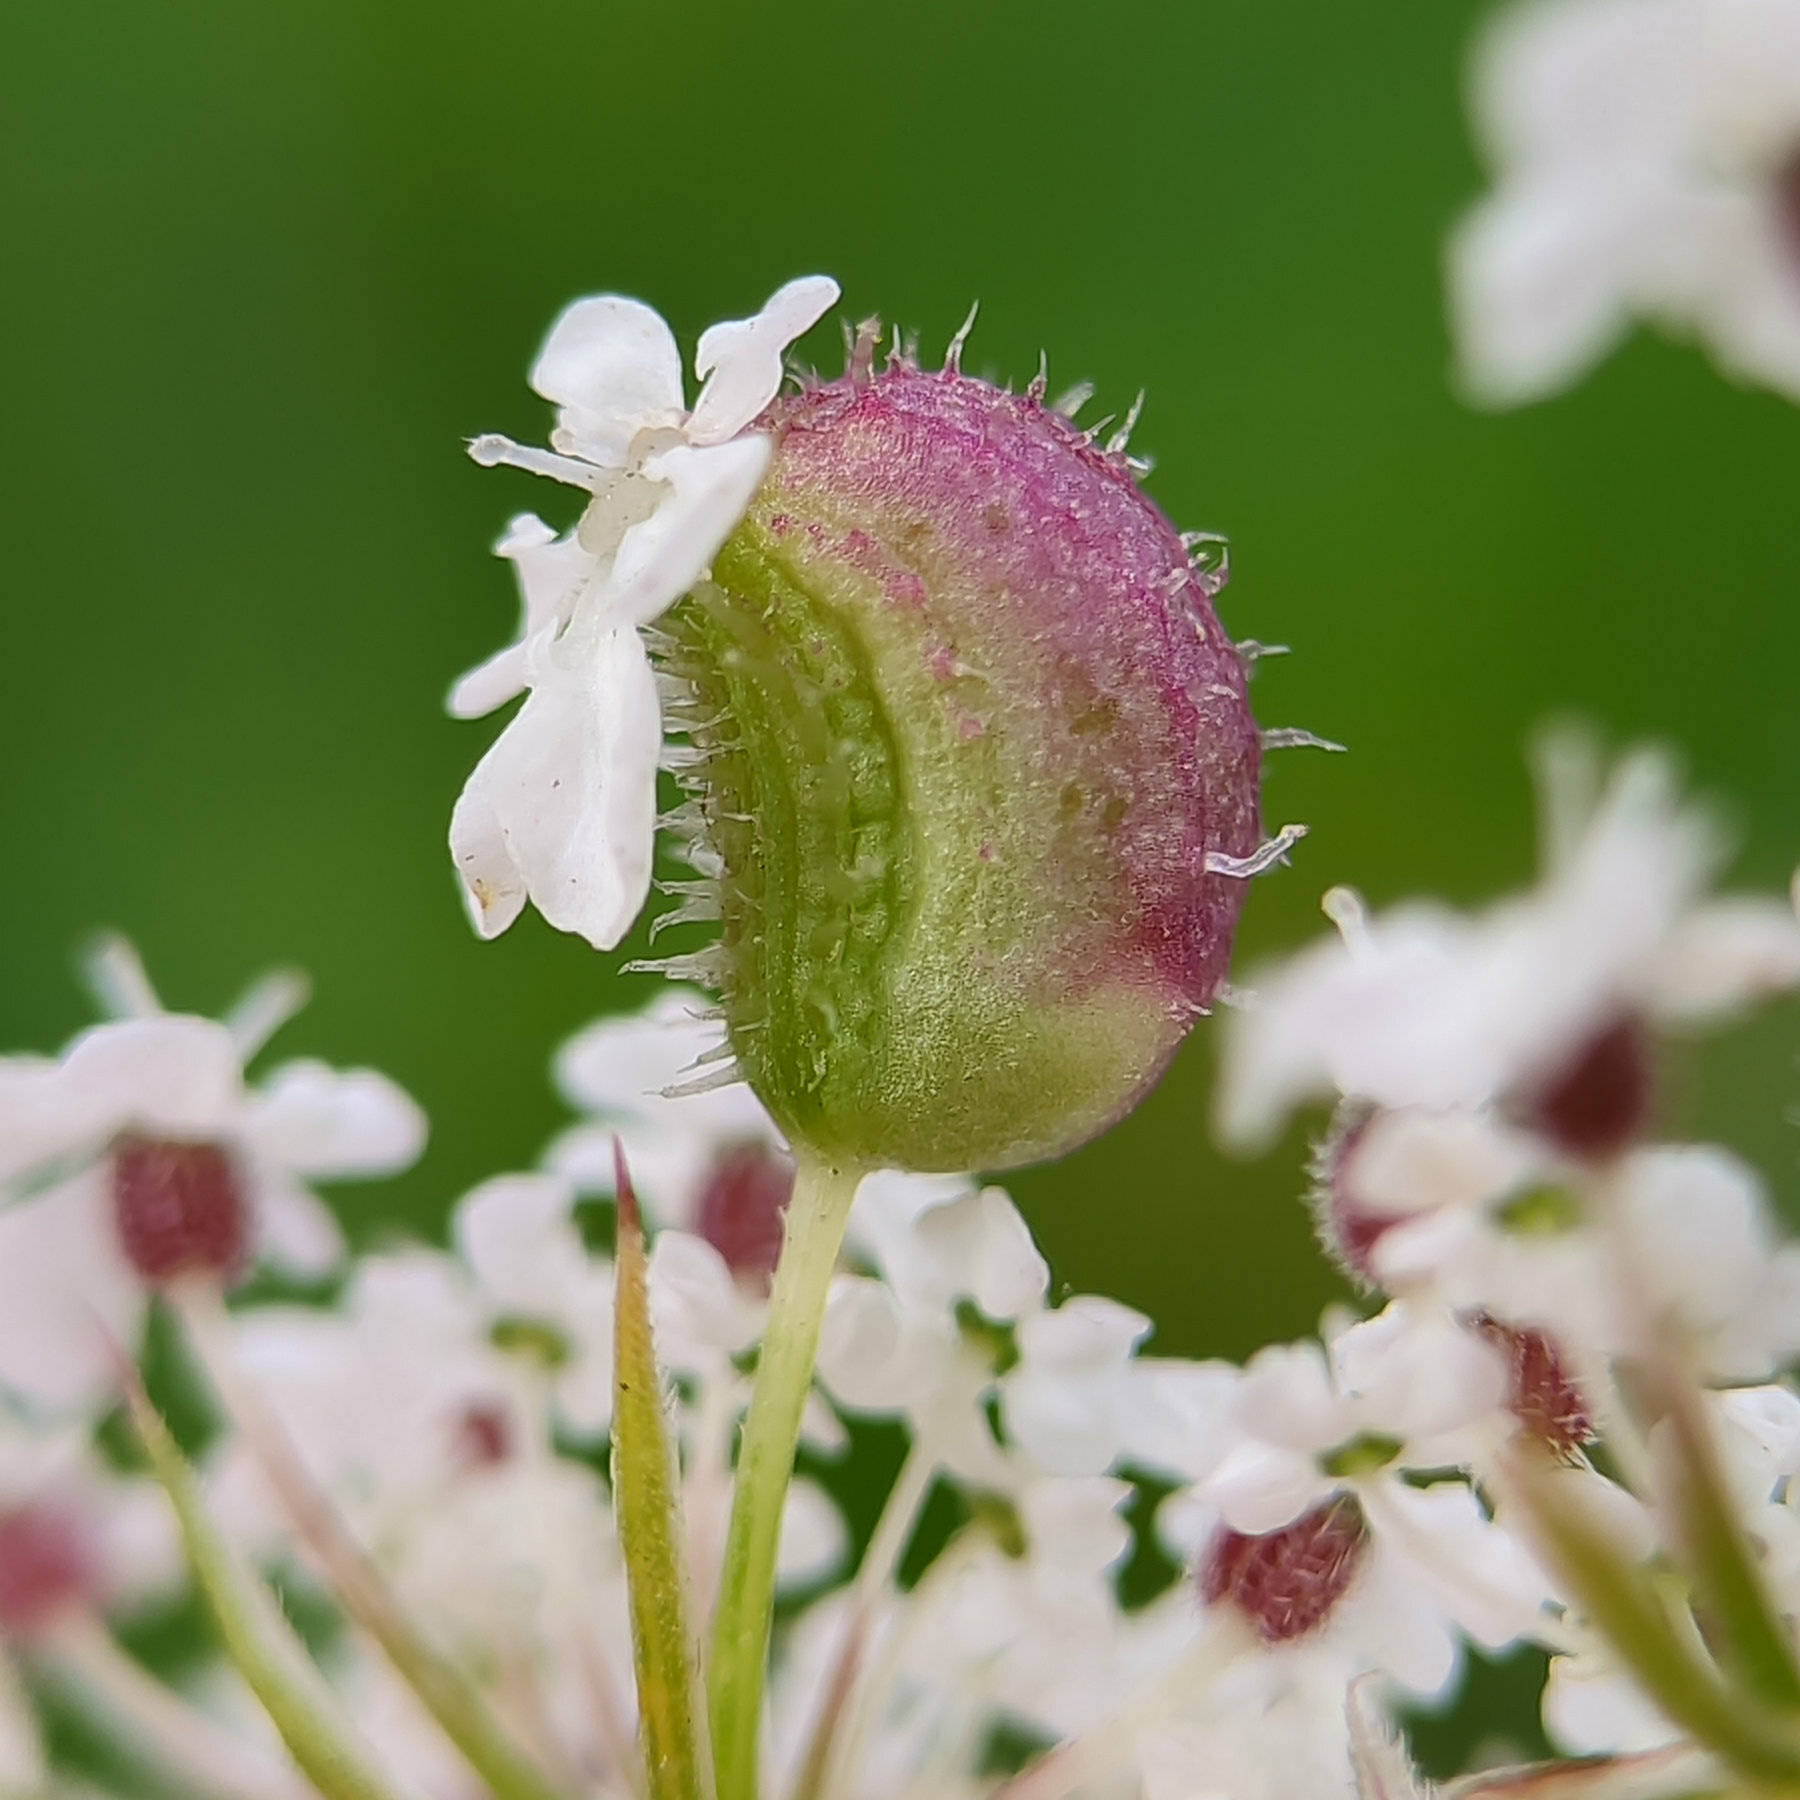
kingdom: Animalia
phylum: Arthropoda
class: Insecta
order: Diptera
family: Cecidomyiidae
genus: Kiefferia
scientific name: Kiefferia pericarpiicola
